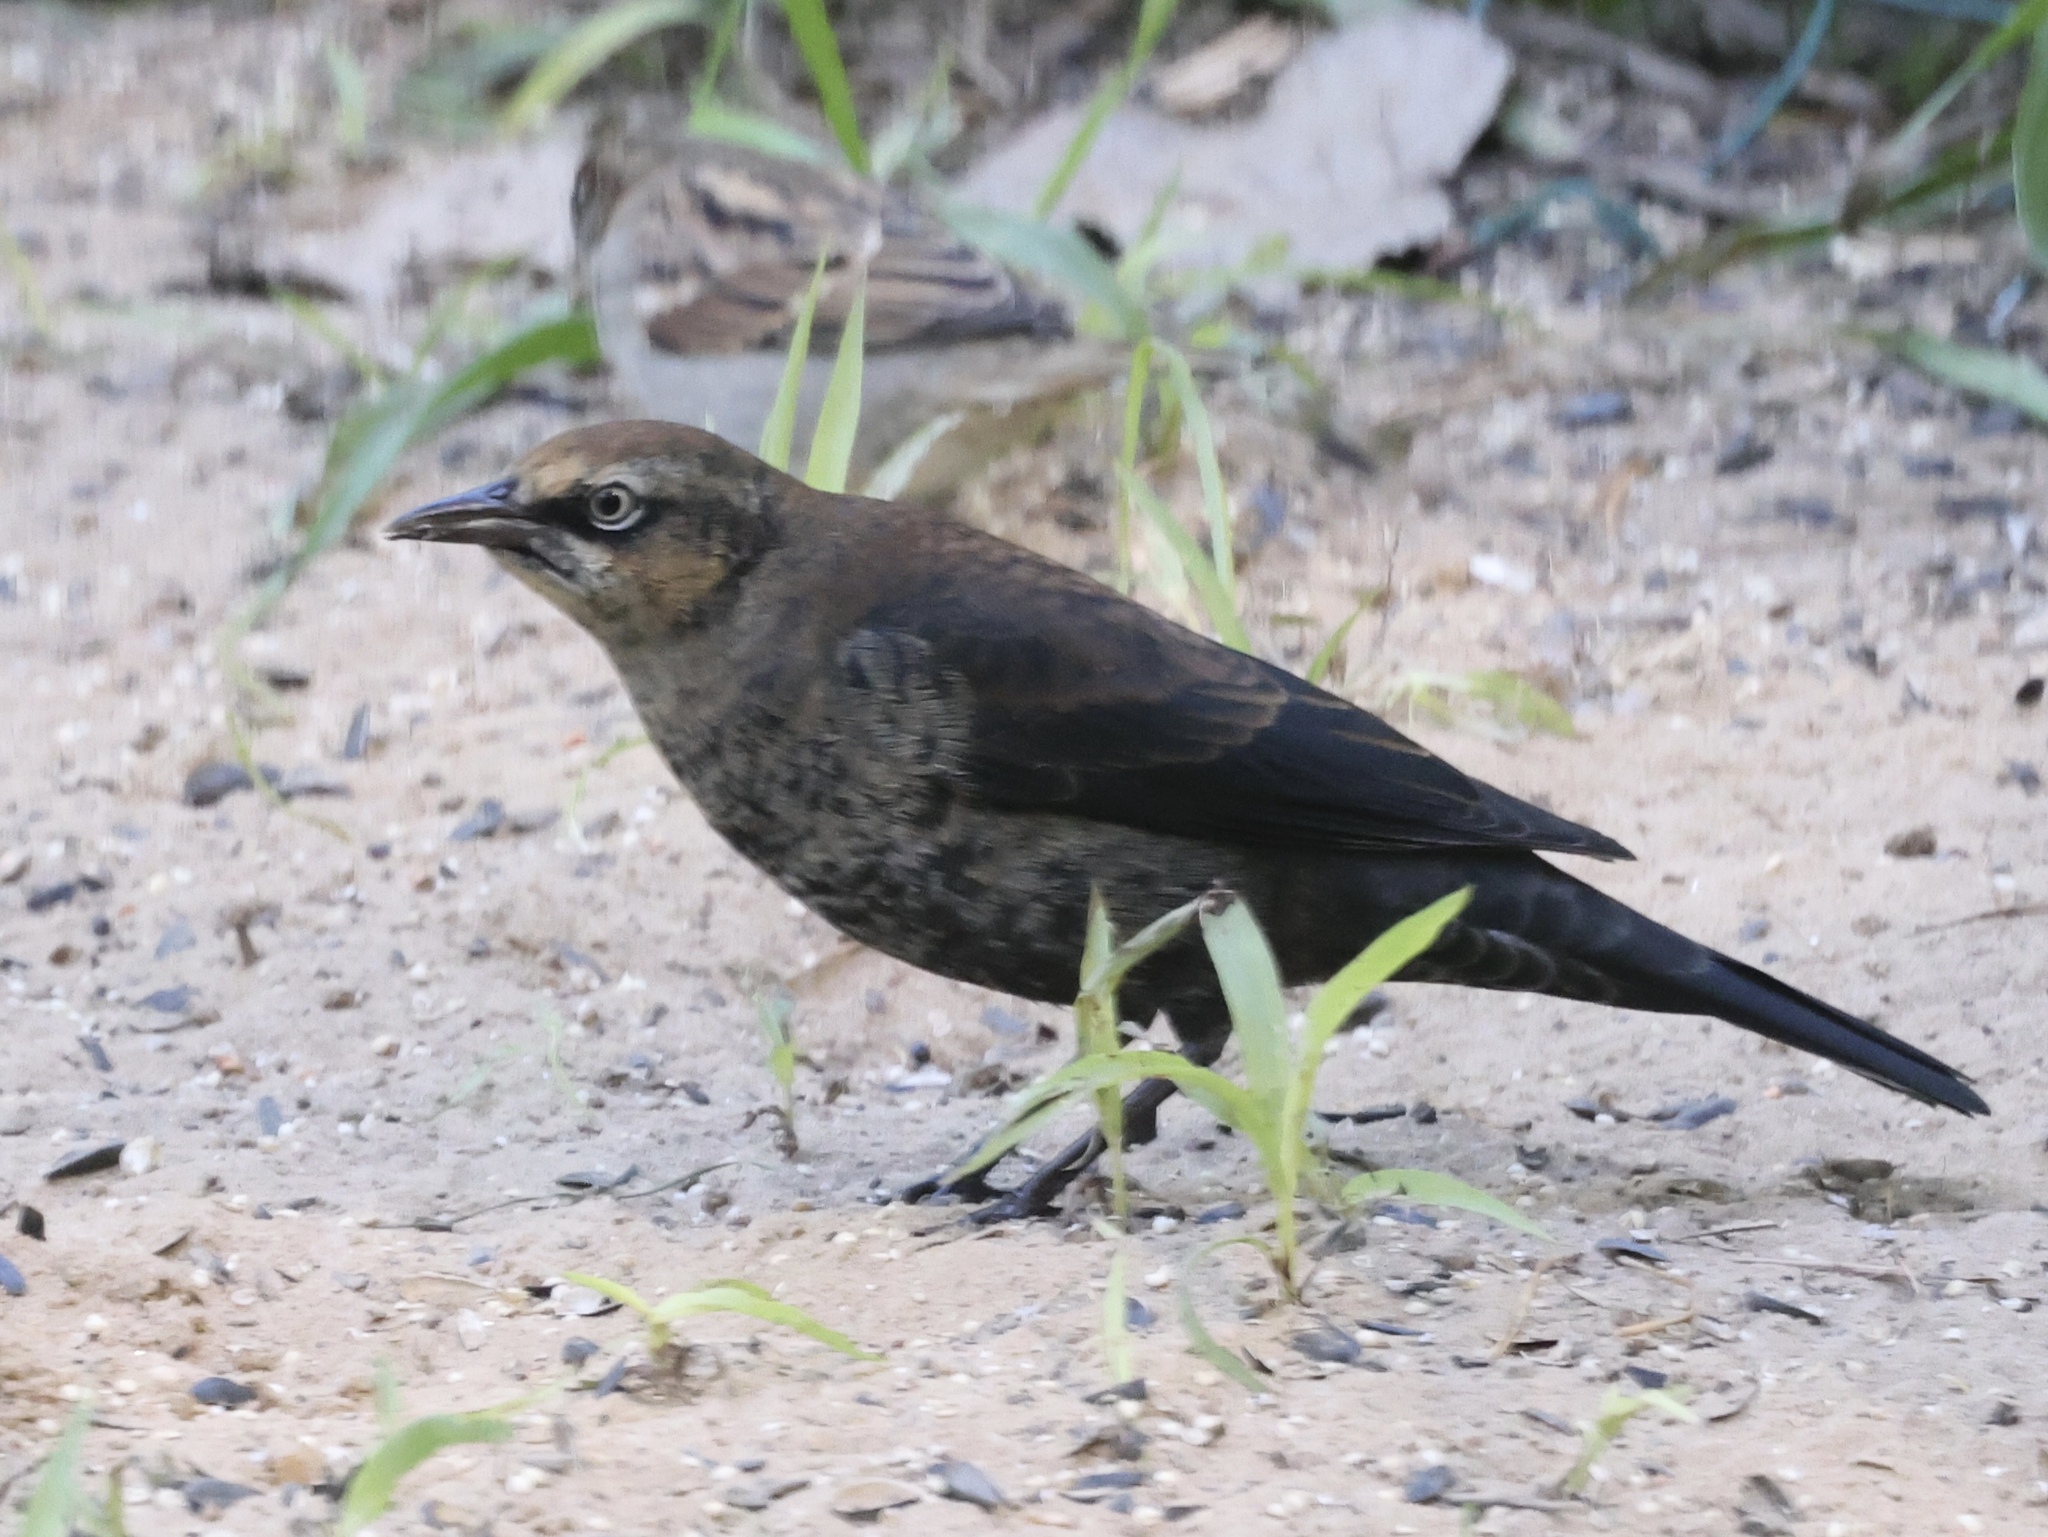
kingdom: Animalia
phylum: Chordata
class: Aves
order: Passeriformes
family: Icteridae
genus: Euphagus
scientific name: Euphagus carolinus
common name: Rusty blackbird
